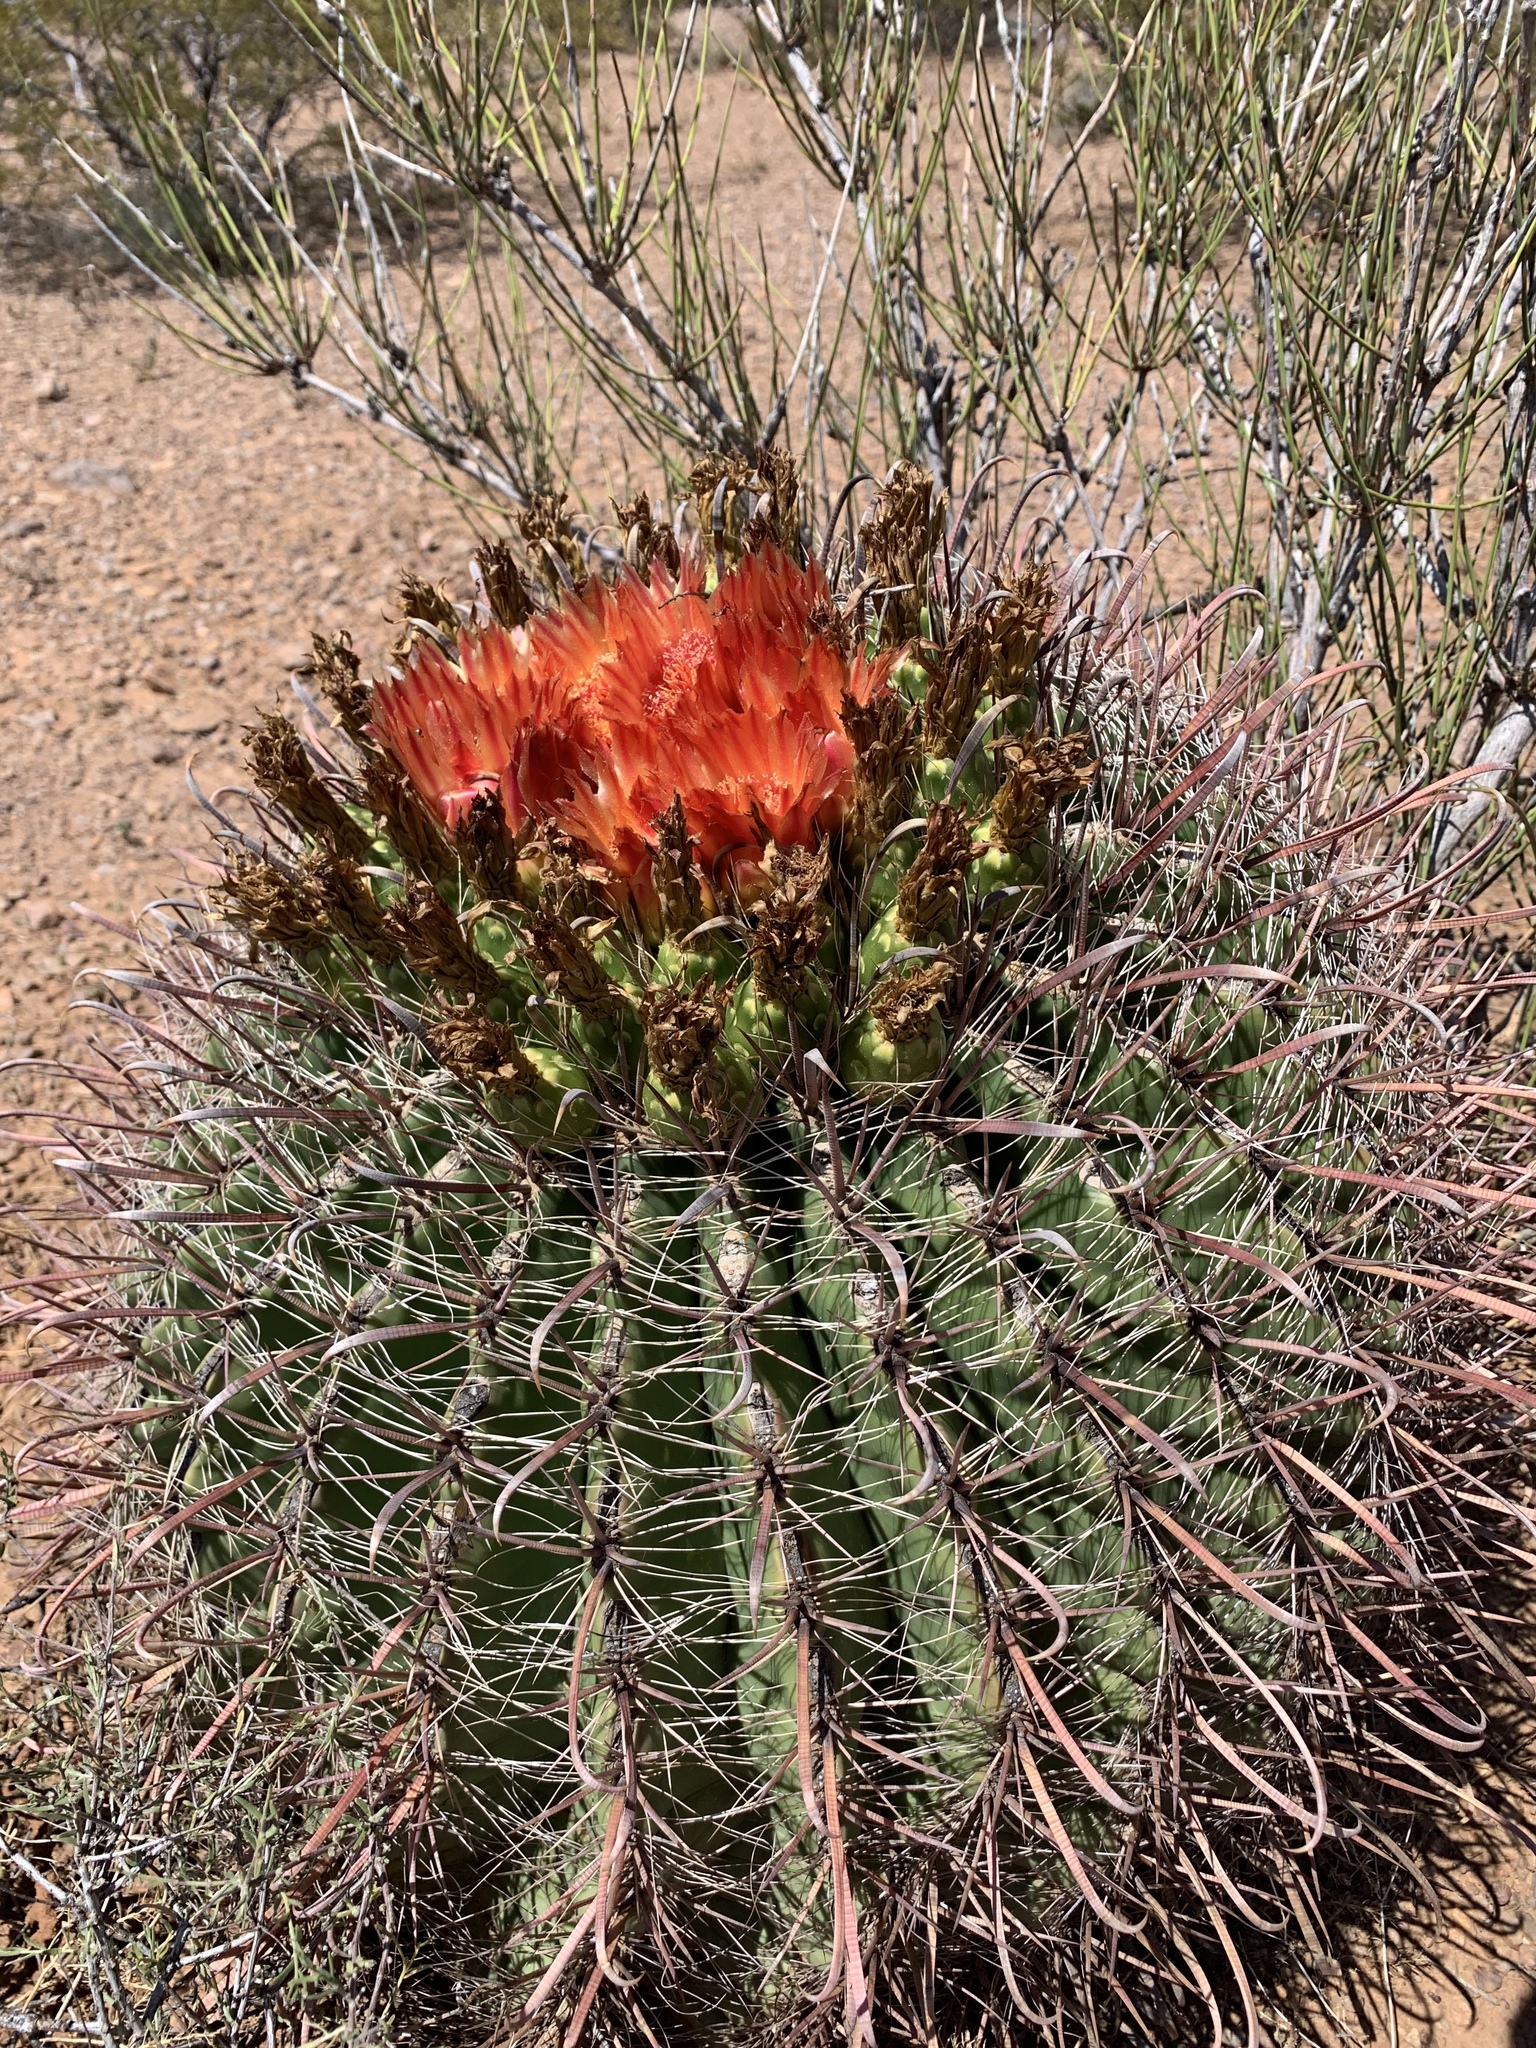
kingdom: Plantae
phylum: Tracheophyta
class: Magnoliopsida
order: Caryophyllales
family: Cactaceae
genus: Ferocactus
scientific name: Ferocactus wislizeni
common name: Candy barrel cactus
